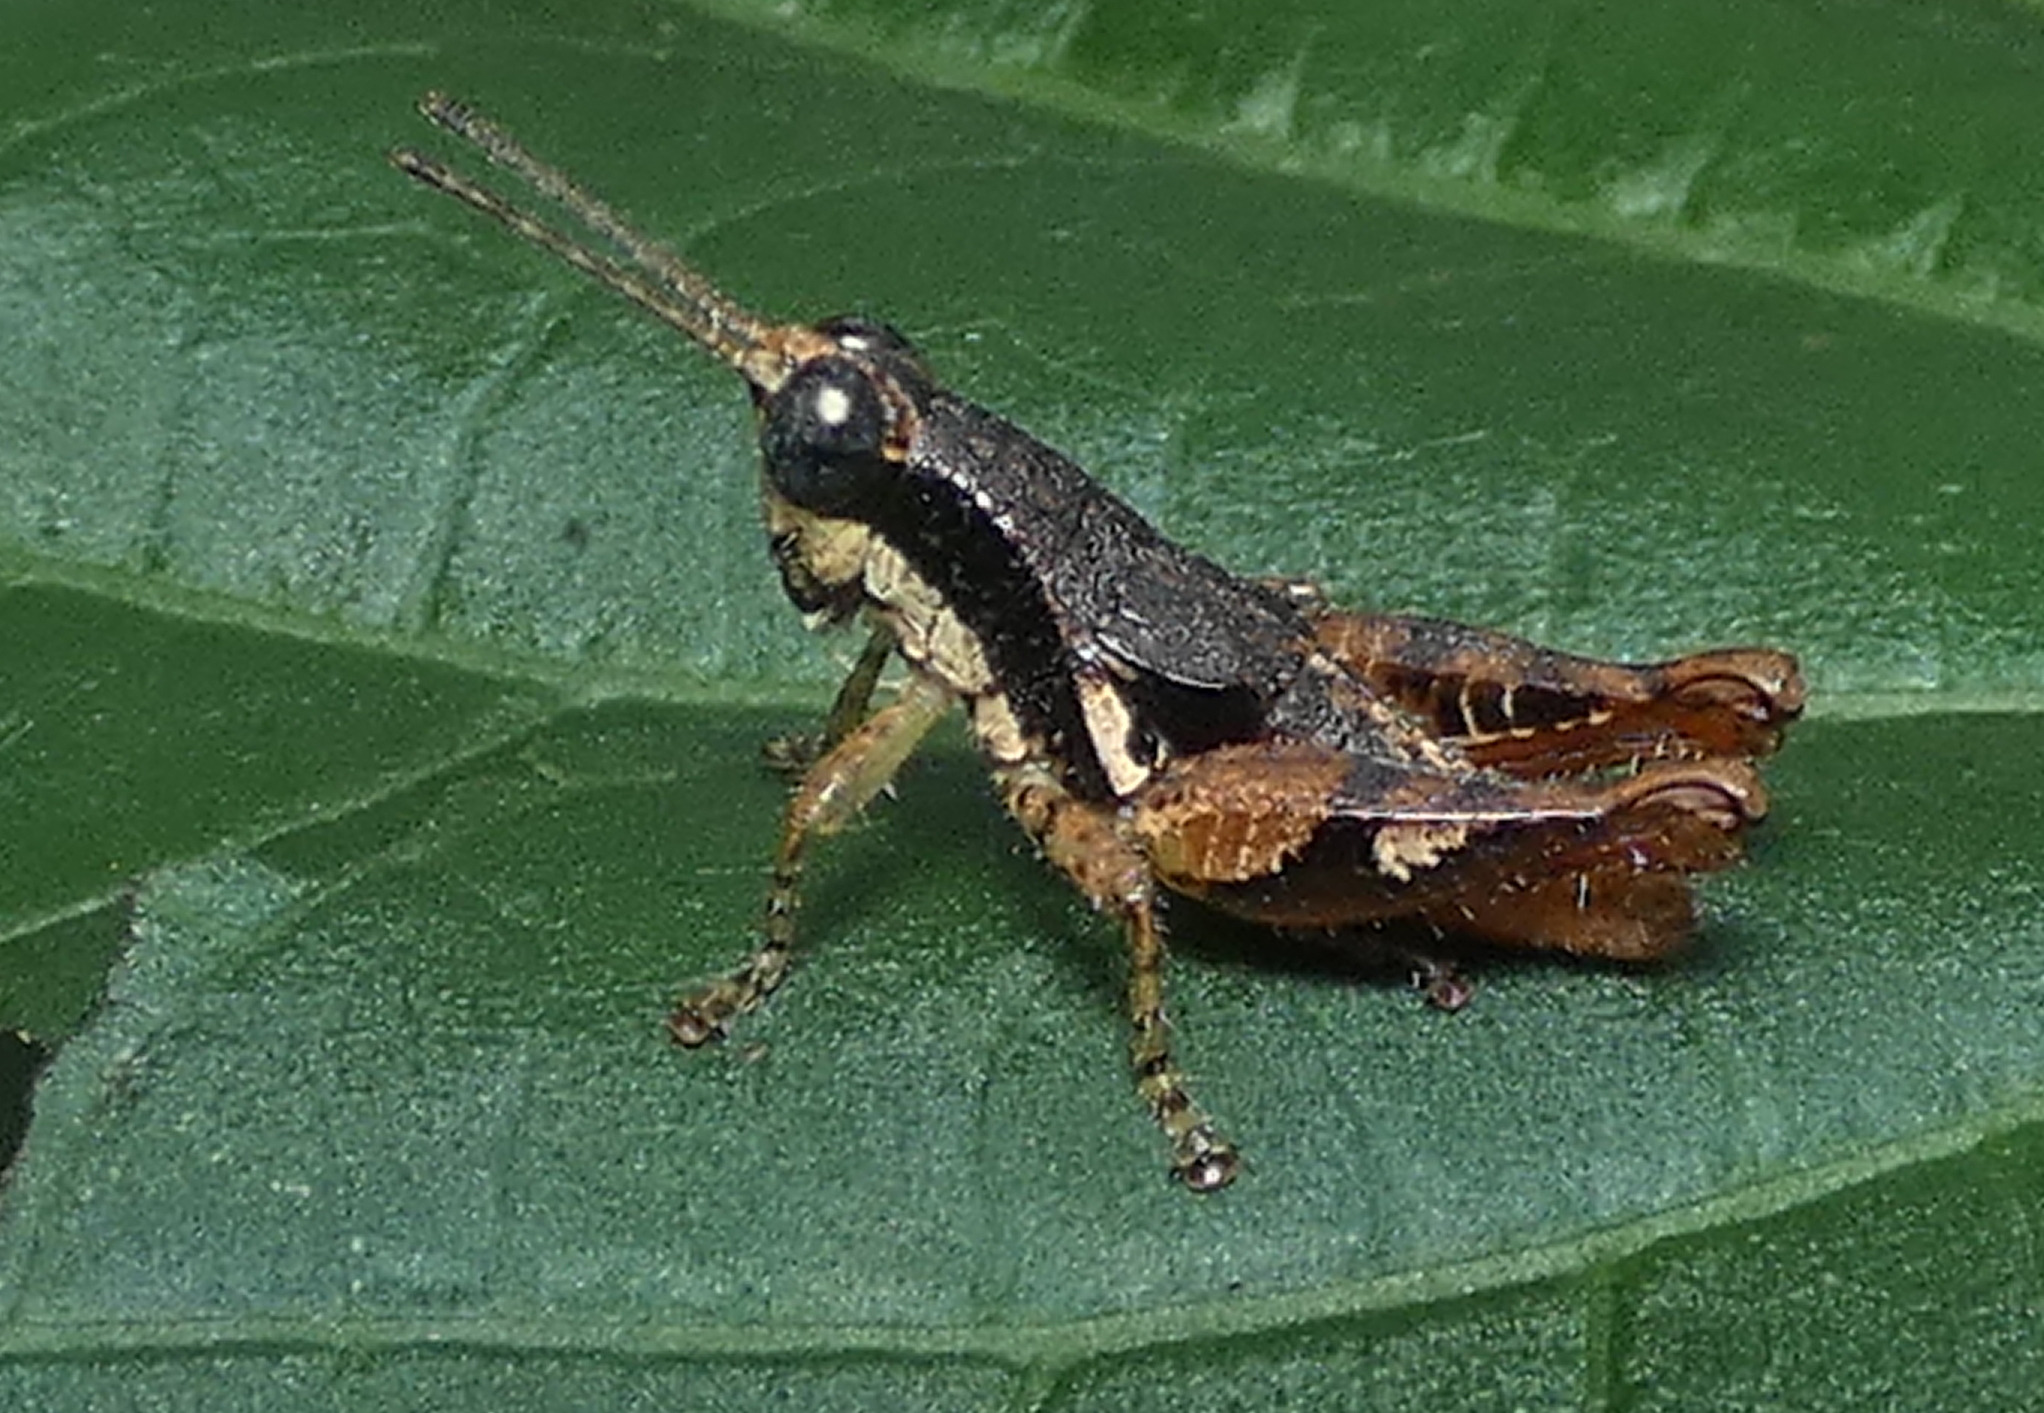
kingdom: Animalia
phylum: Arthropoda
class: Insecta
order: Orthoptera
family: Acrididae
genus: Eujivarus
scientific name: Eujivarus meridionalis
